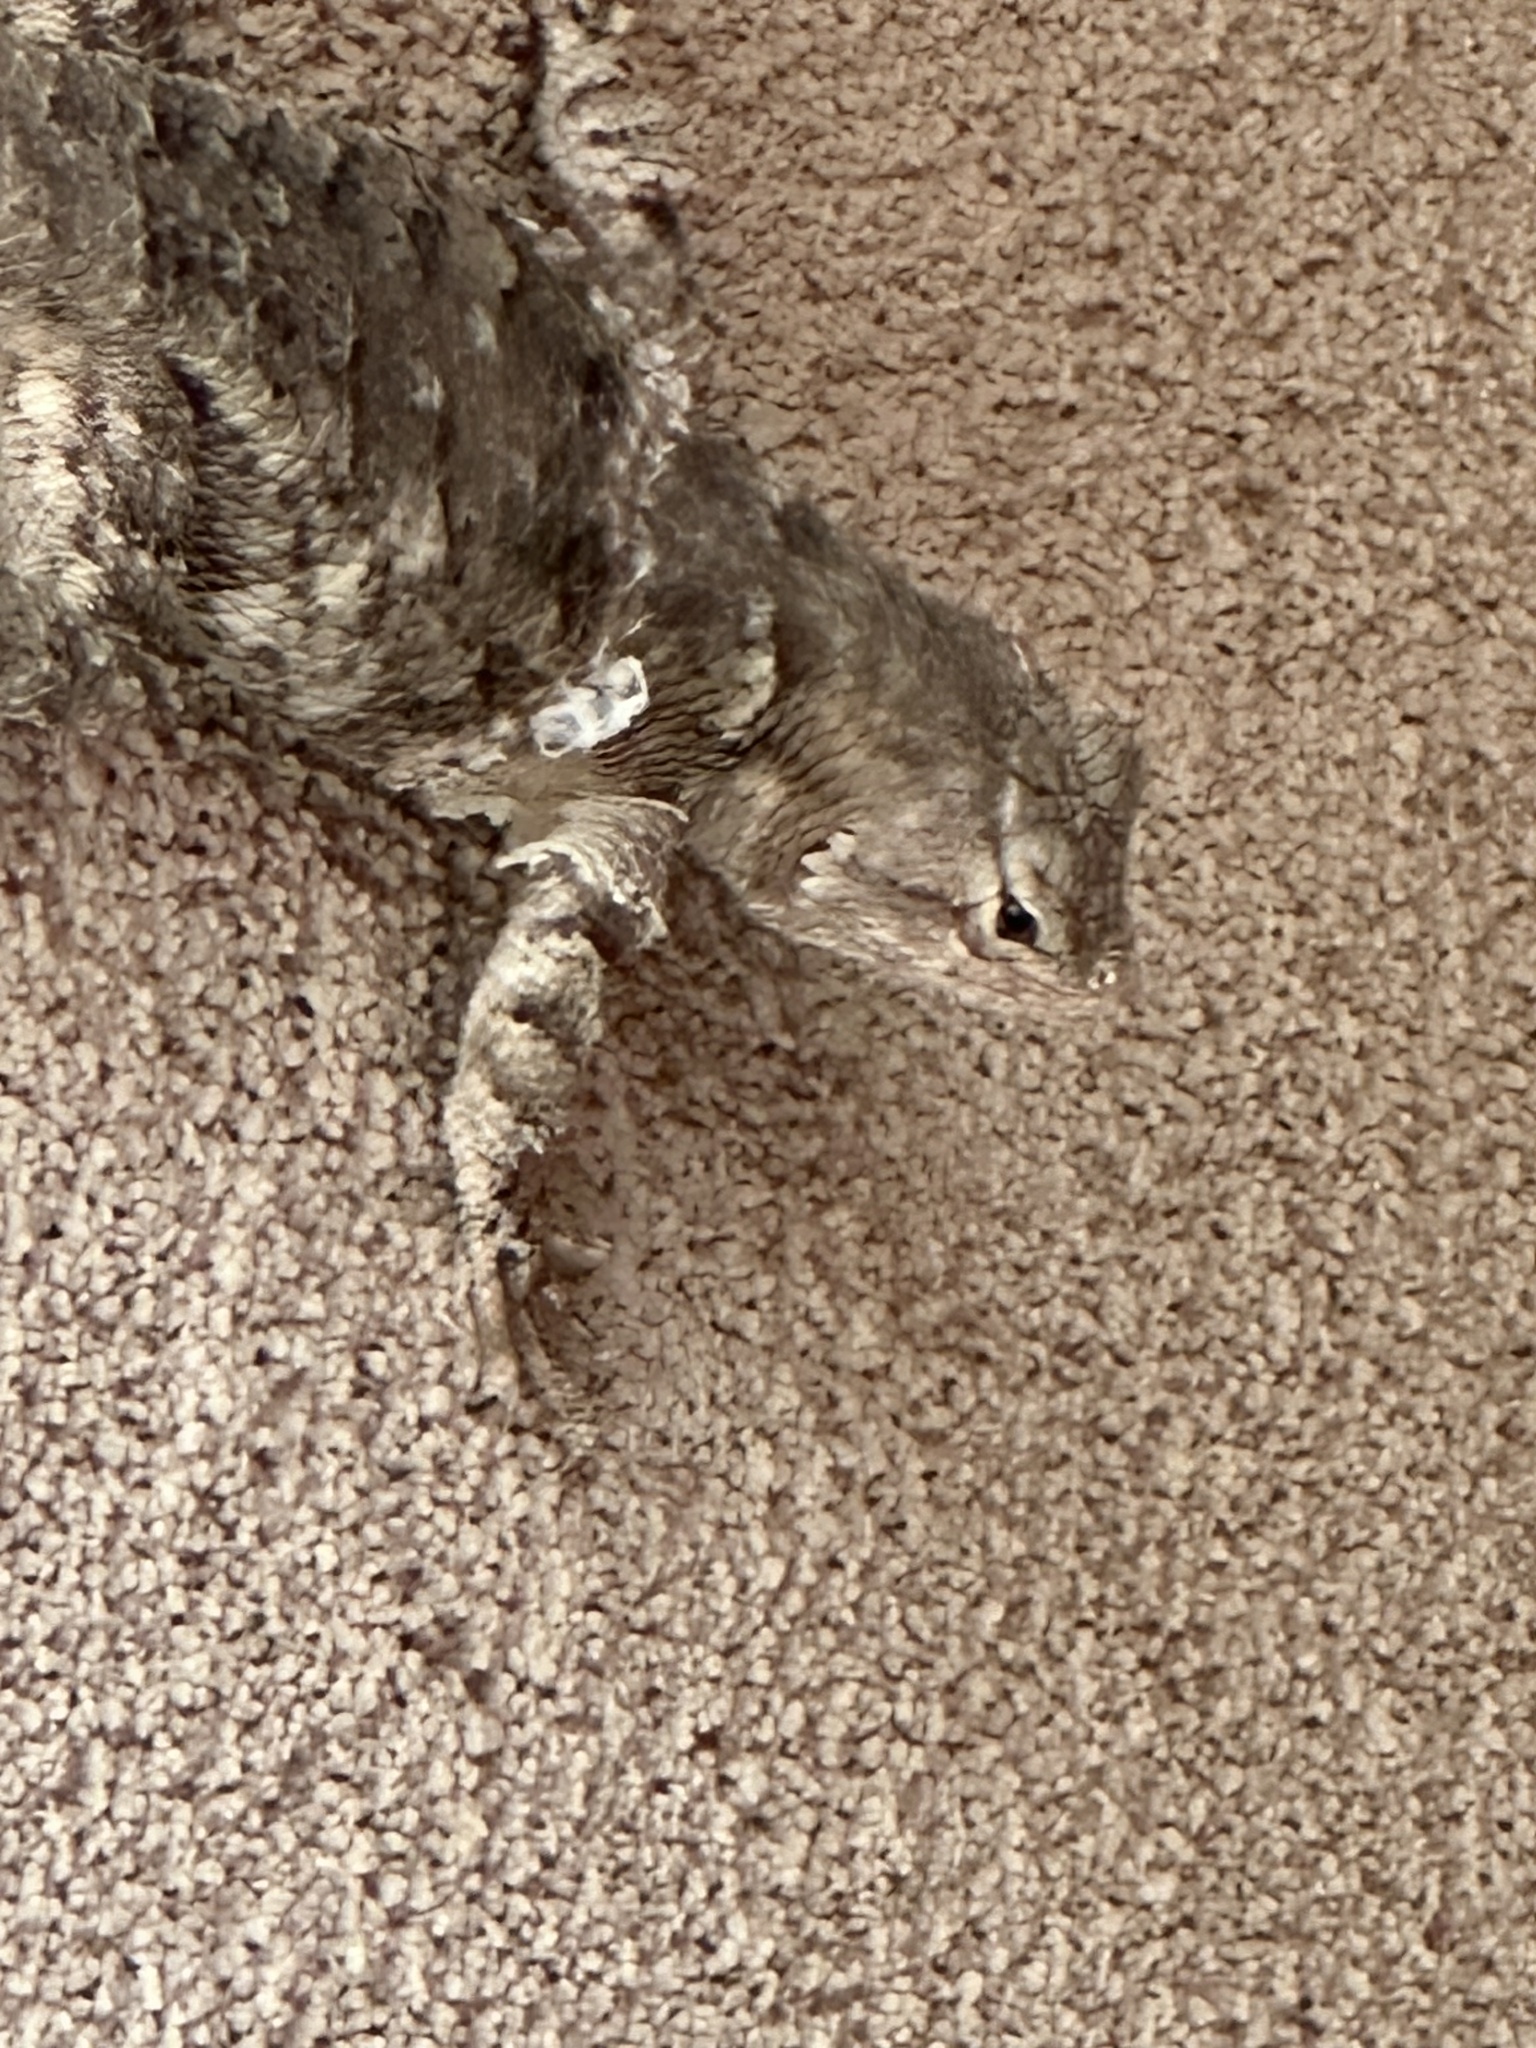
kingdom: Animalia
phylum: Chordata
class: Squamata
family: Phrynosomatidae
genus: Sceloporus
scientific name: Sceloporus clarkii
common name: Clark's spiny lizard
